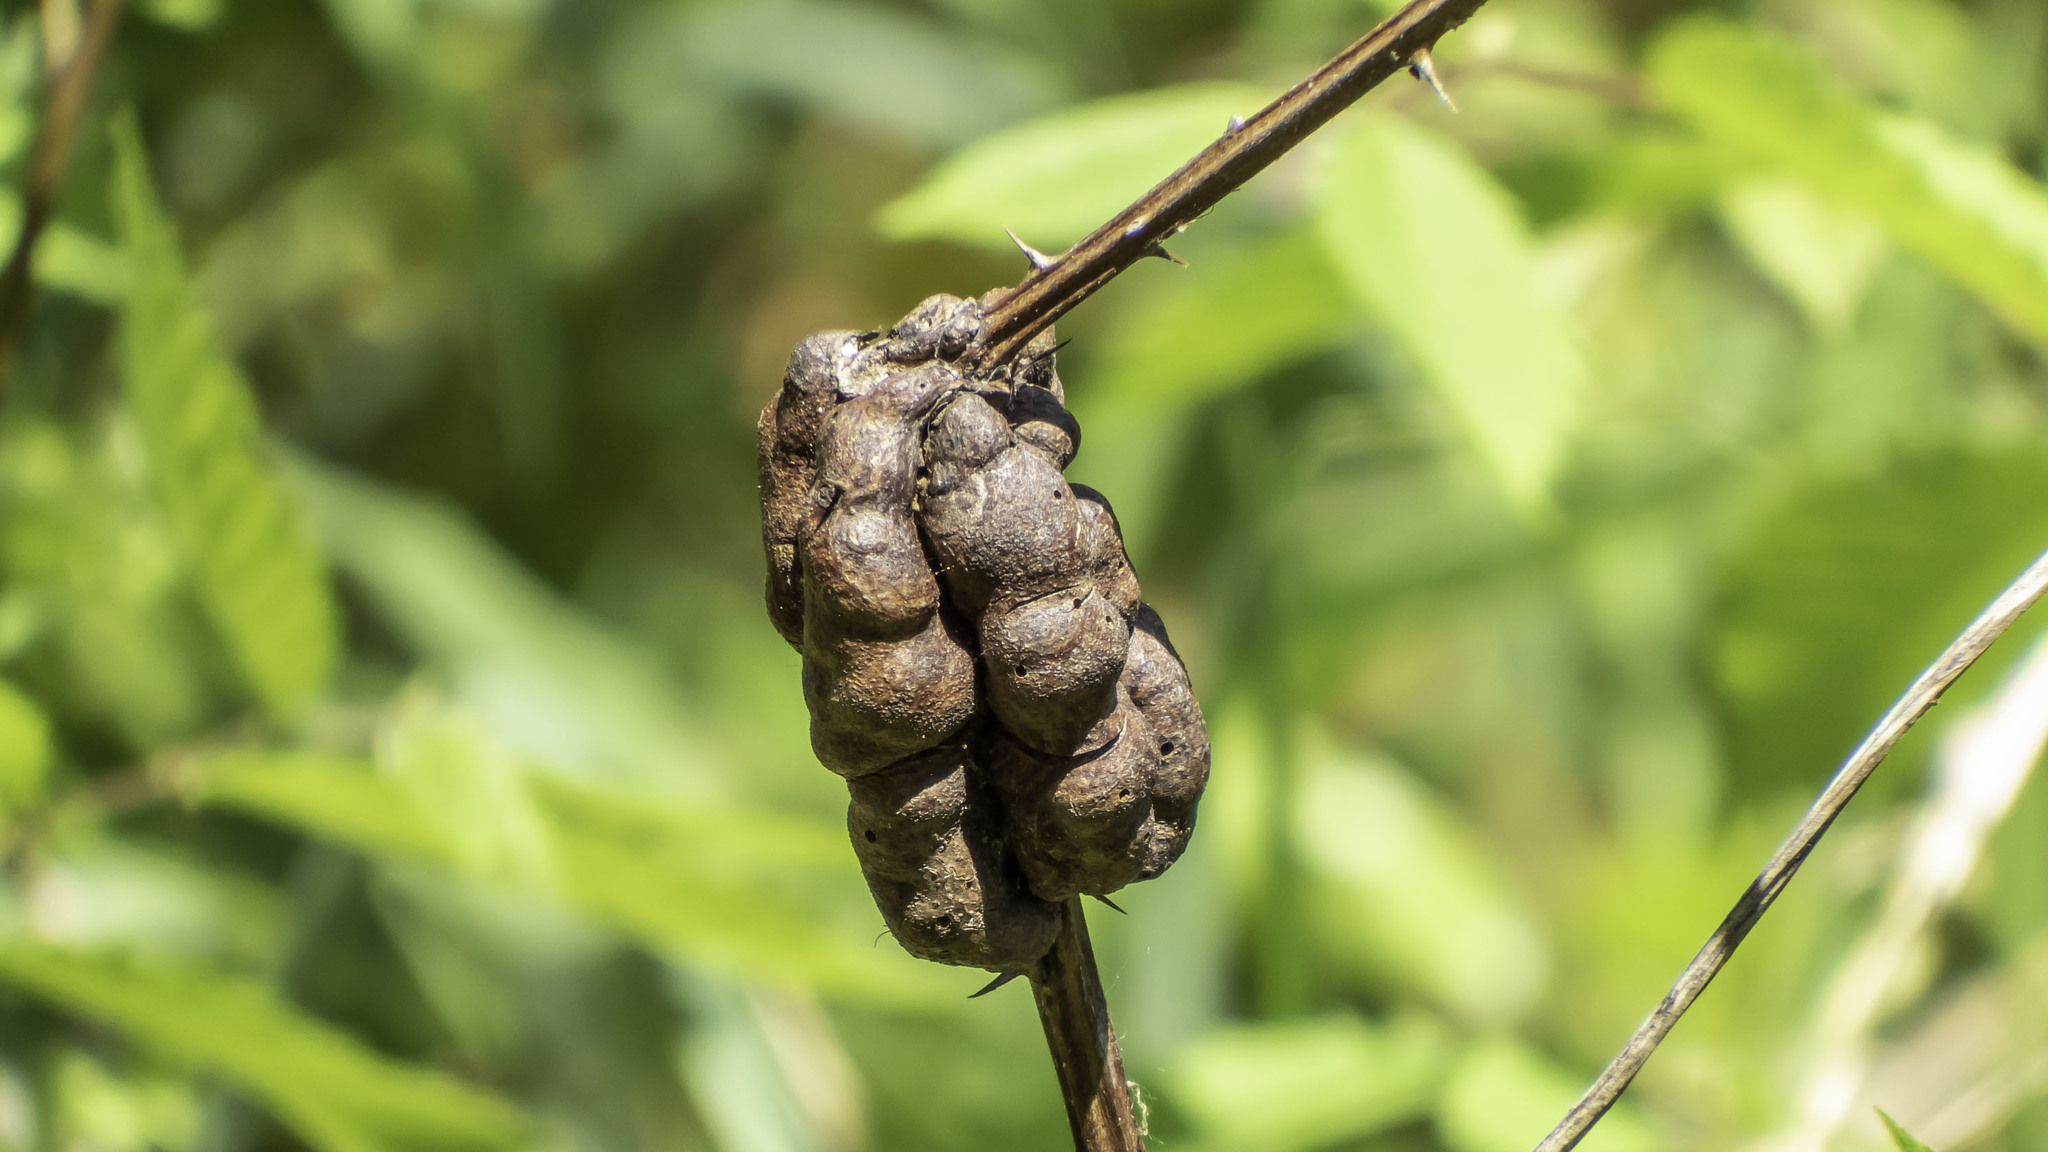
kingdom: Animalia
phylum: Arthropoda
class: Insecta
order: Hymenoptera
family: Cynipidae
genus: Diastrophus
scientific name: Diastrophus
